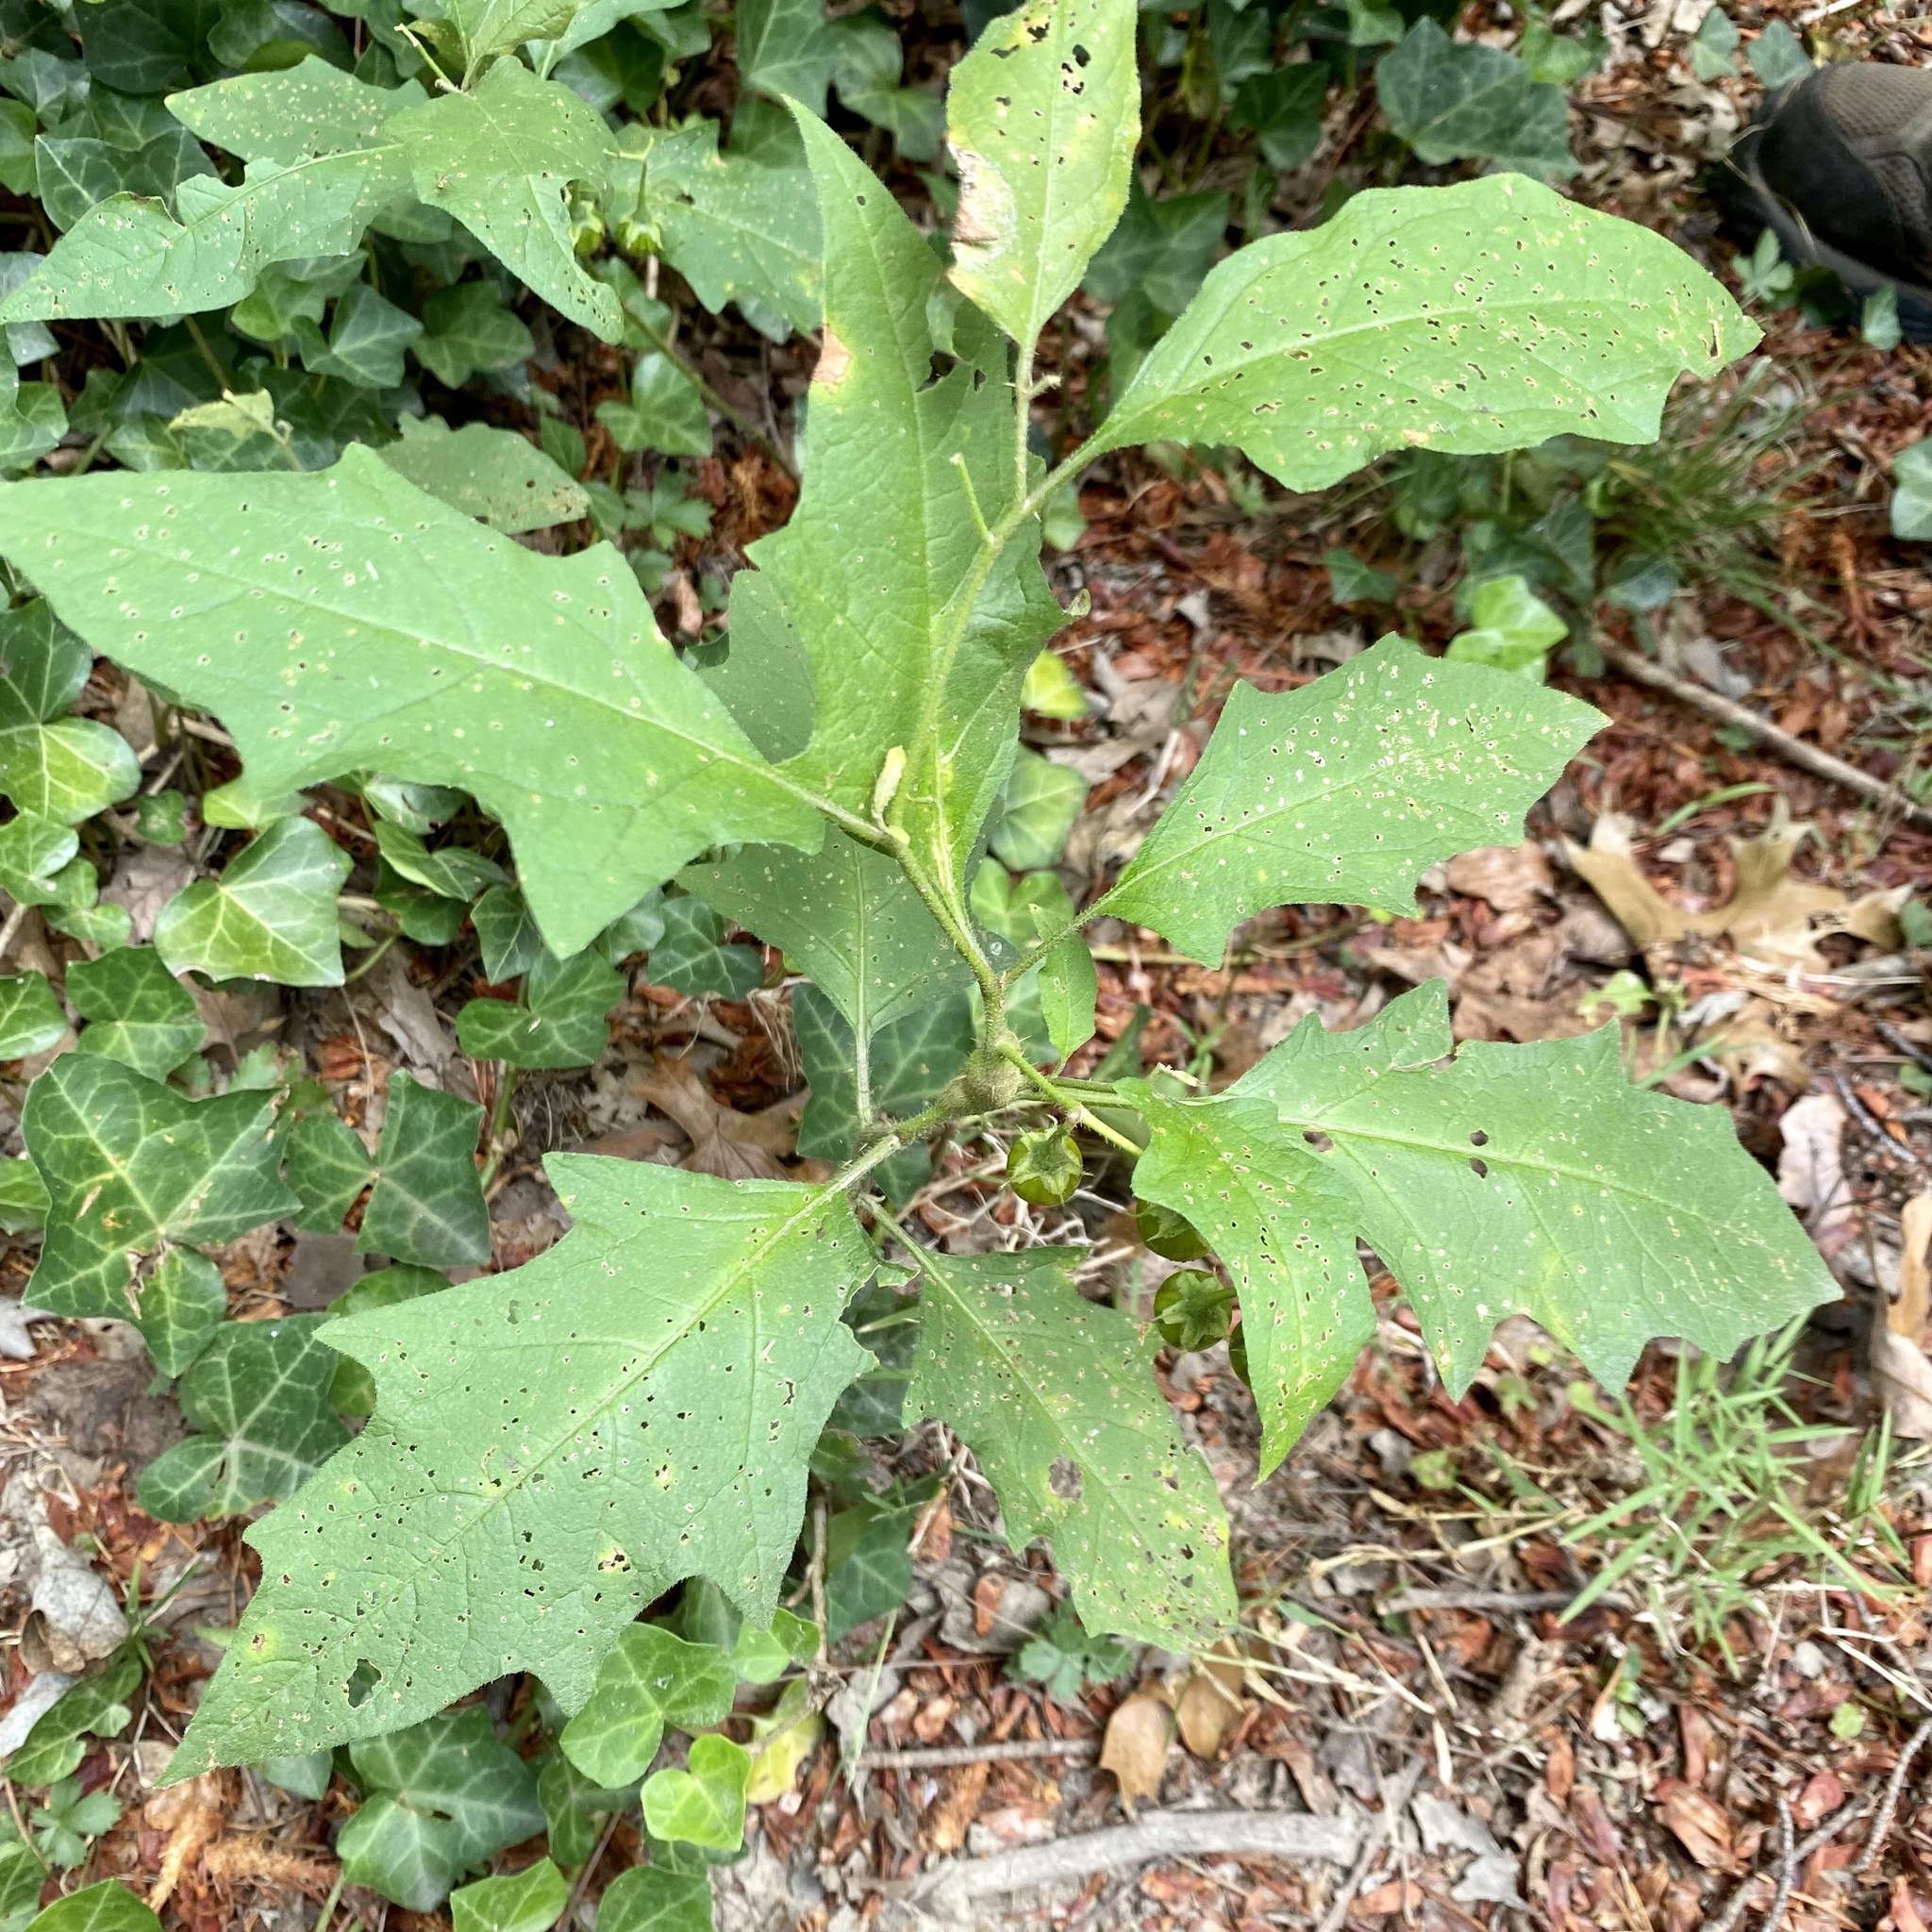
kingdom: Plantae
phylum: Tracheophyta
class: Magnoliopsida
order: Solanales
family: Solanaceae
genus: Solanum
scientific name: Solanum carolinense
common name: Horse-nettle
